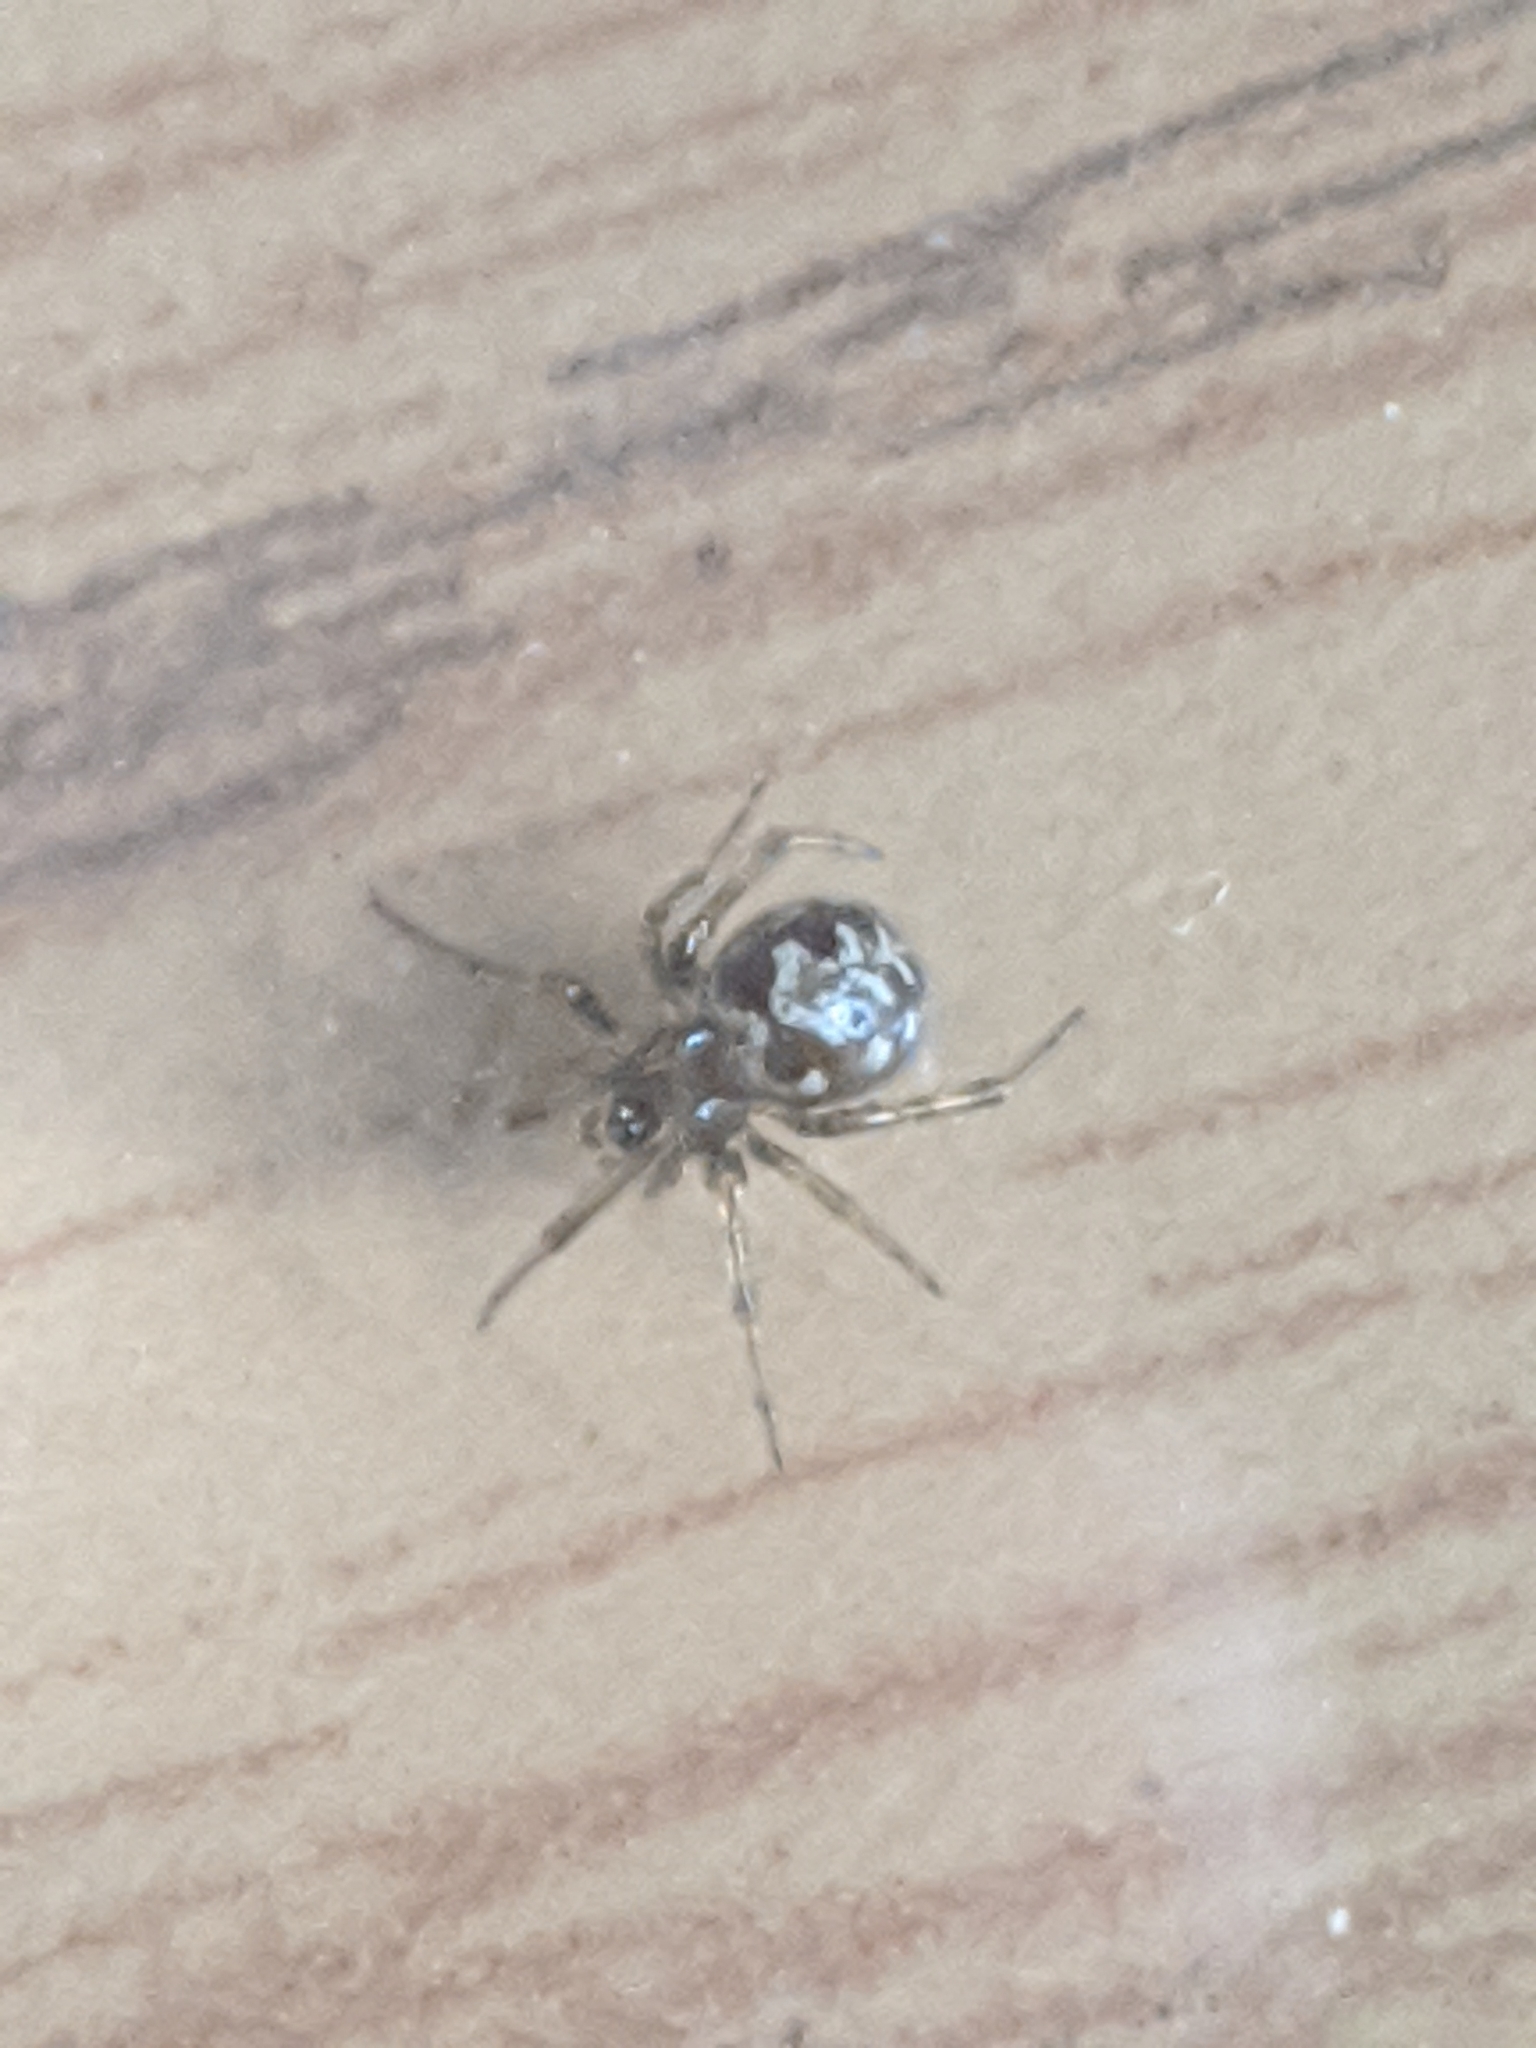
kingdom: Animalia
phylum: Arthropoda
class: Arachnida
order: Araneae
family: Theridiidae
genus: Steatoda
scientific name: Steatoda triangulosa
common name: Triangulate bud spider
